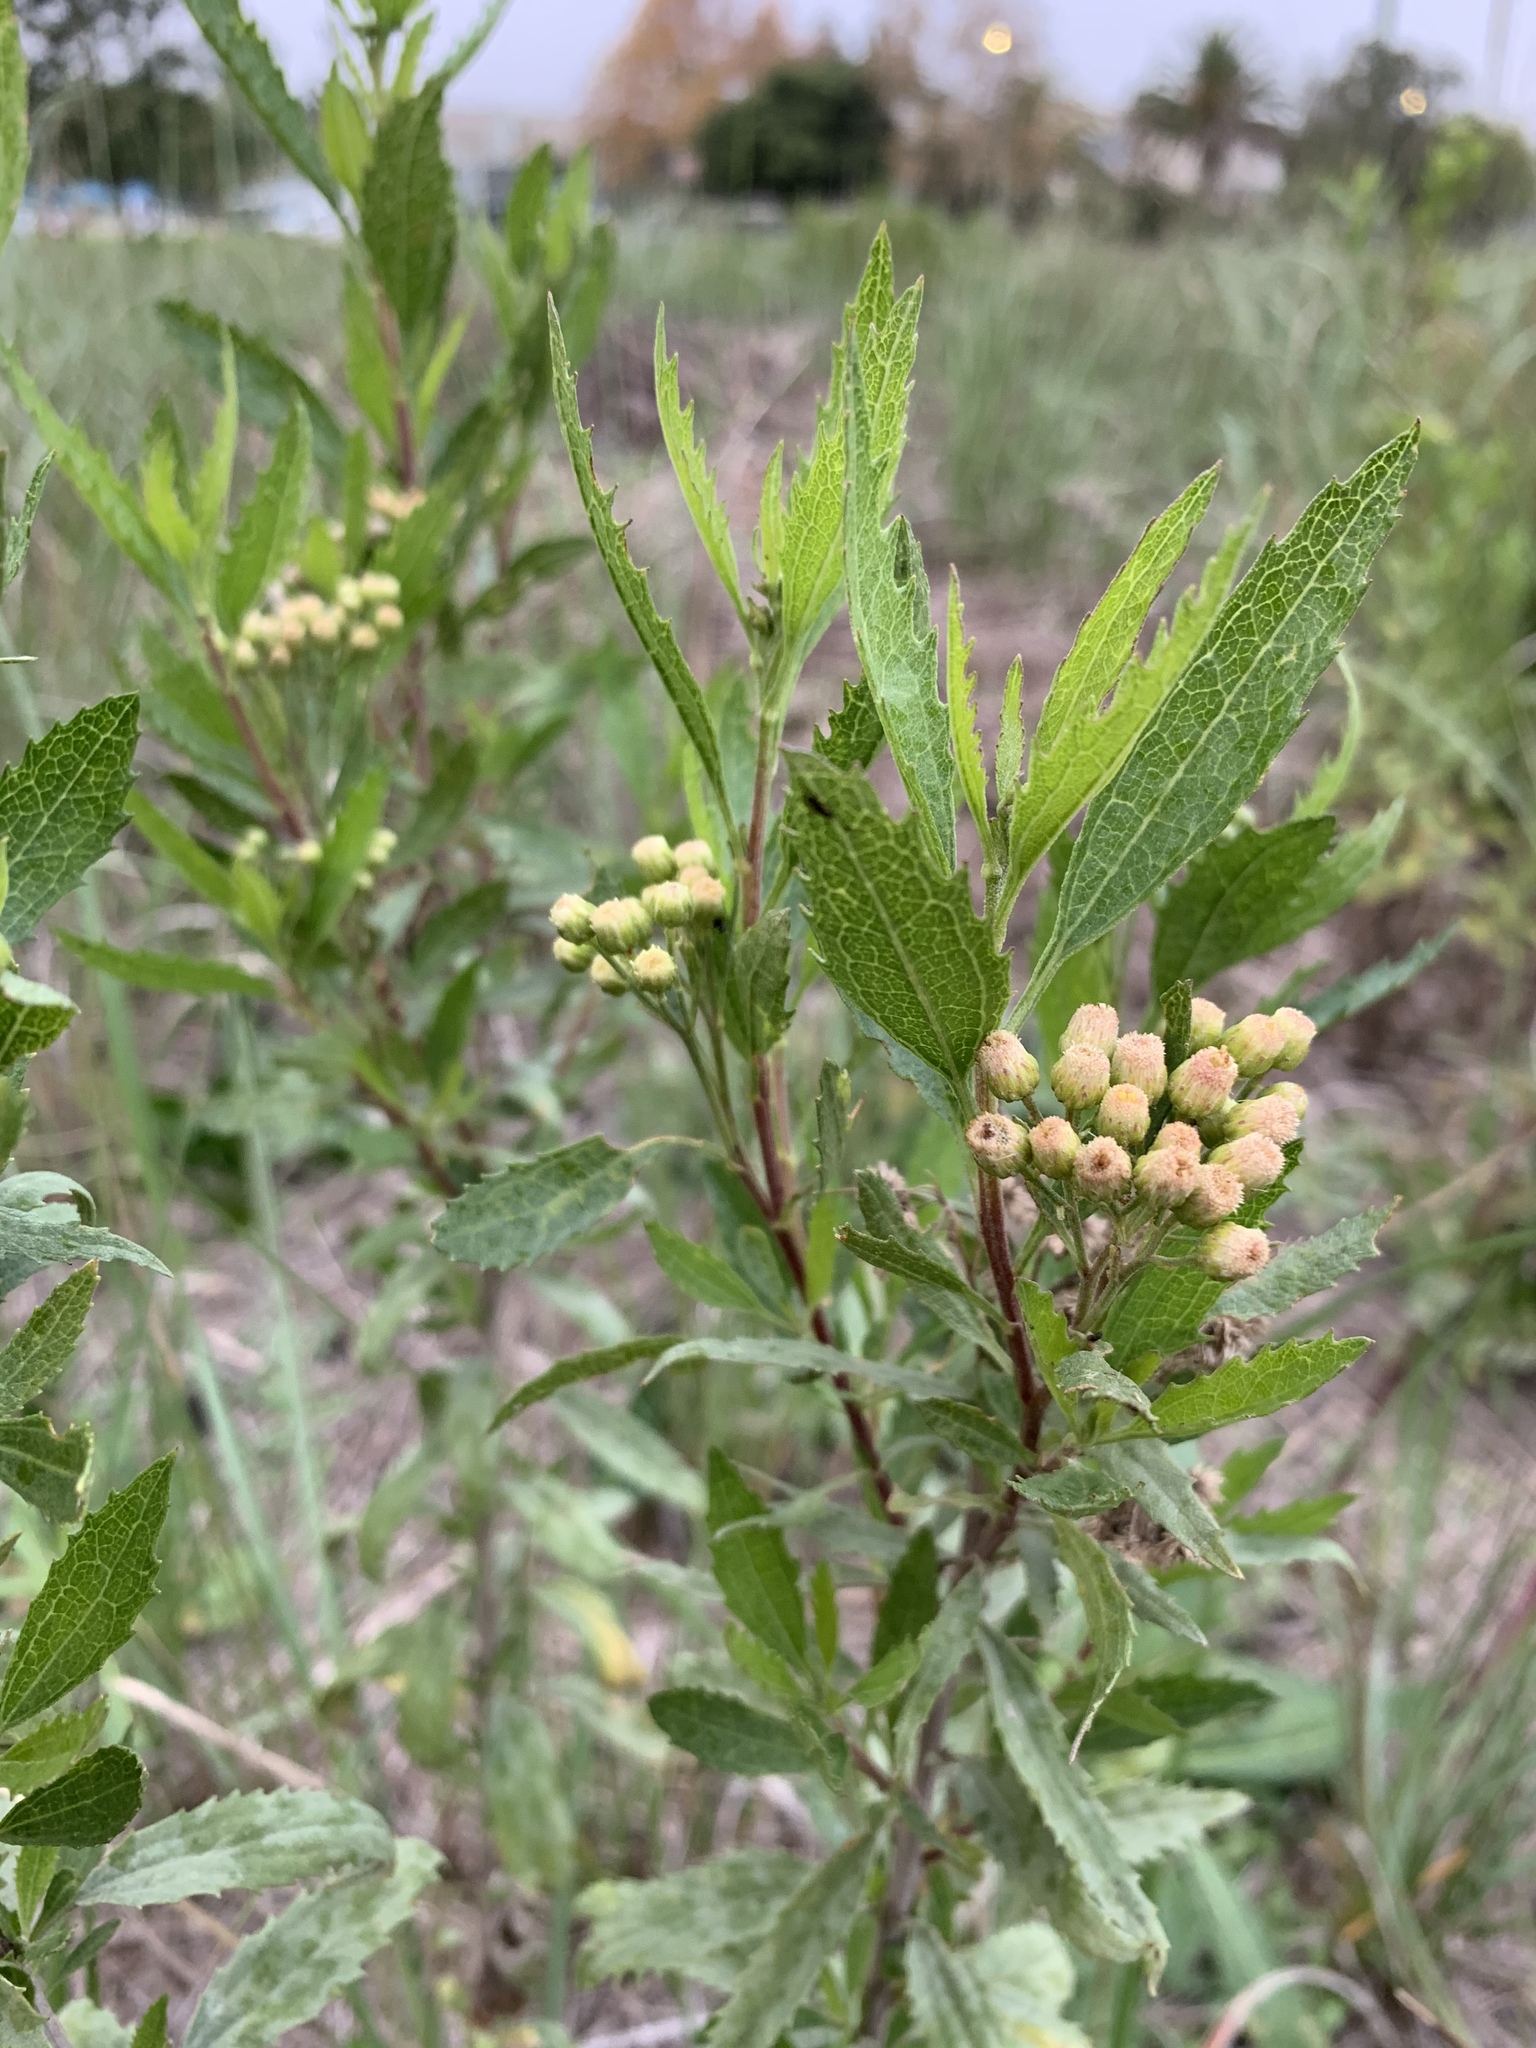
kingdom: Plantae
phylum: Tracheophyta
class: Magnoliopsida
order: Asterales
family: Asteraceae
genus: Nidorella
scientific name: Nidorella ivifolia
